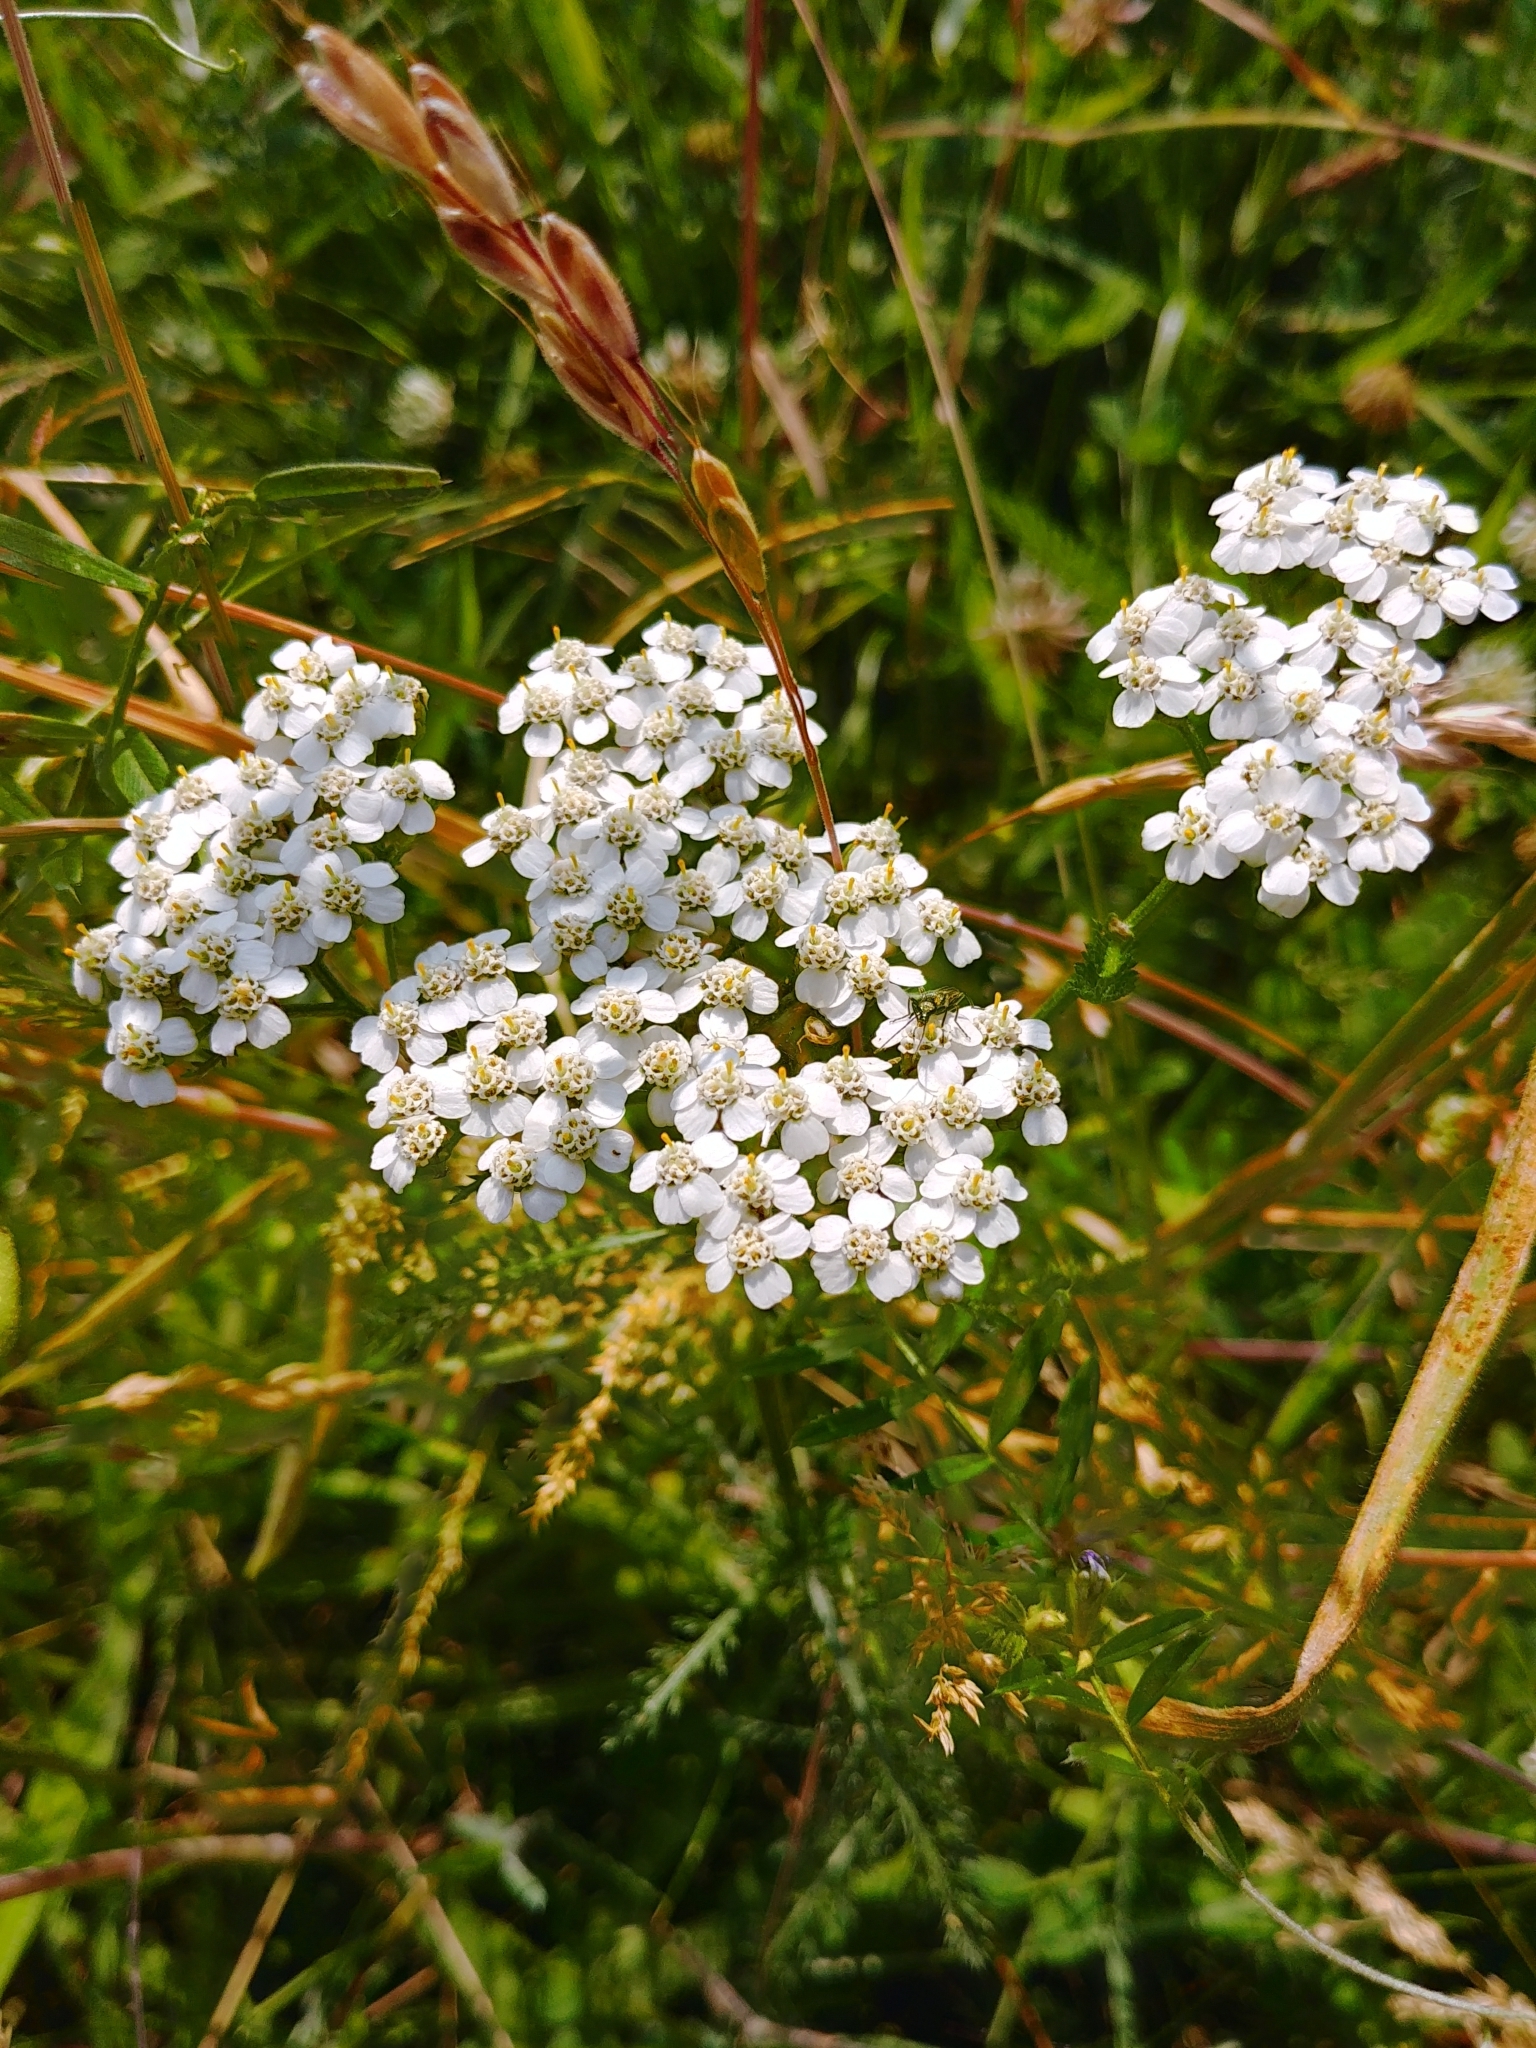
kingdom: Plantae
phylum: Tracheophyta
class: Magnoliopsida
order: Asterales
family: Asteraceae
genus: Achillea
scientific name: Achillea millefolium
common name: Yarrow
